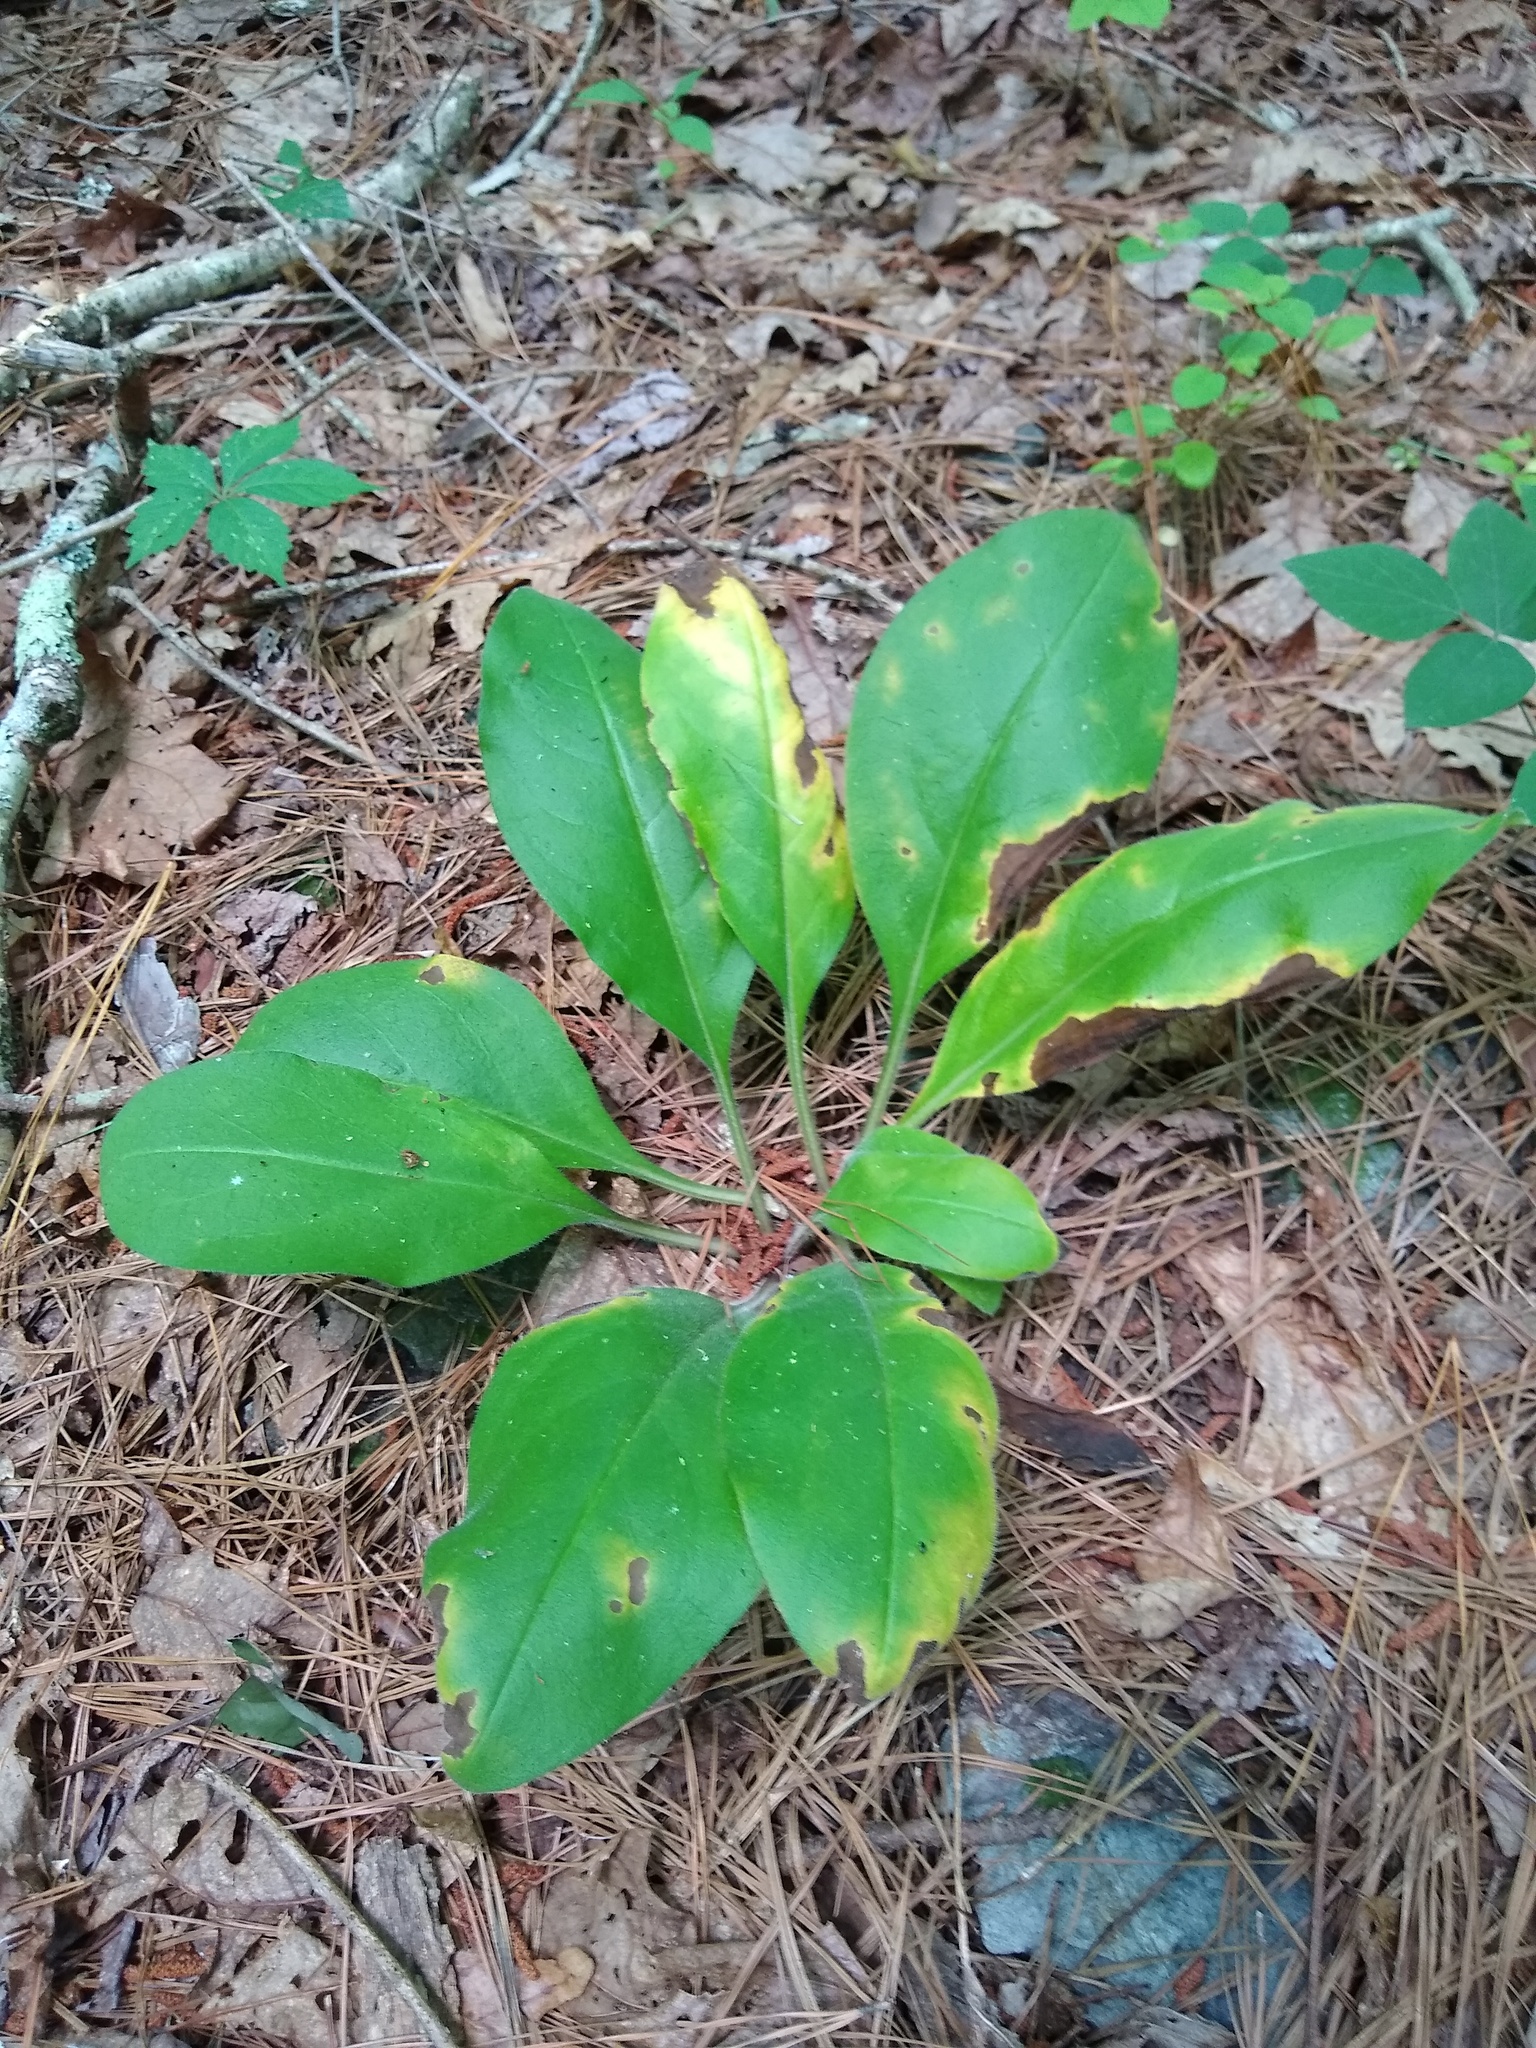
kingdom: Plantae
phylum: Tracheophyta
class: Magnoliopsida
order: Boraginales
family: Boraginaceae
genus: Andersonglossum
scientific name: Andersonglossum virginianum
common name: Wild comfrey
